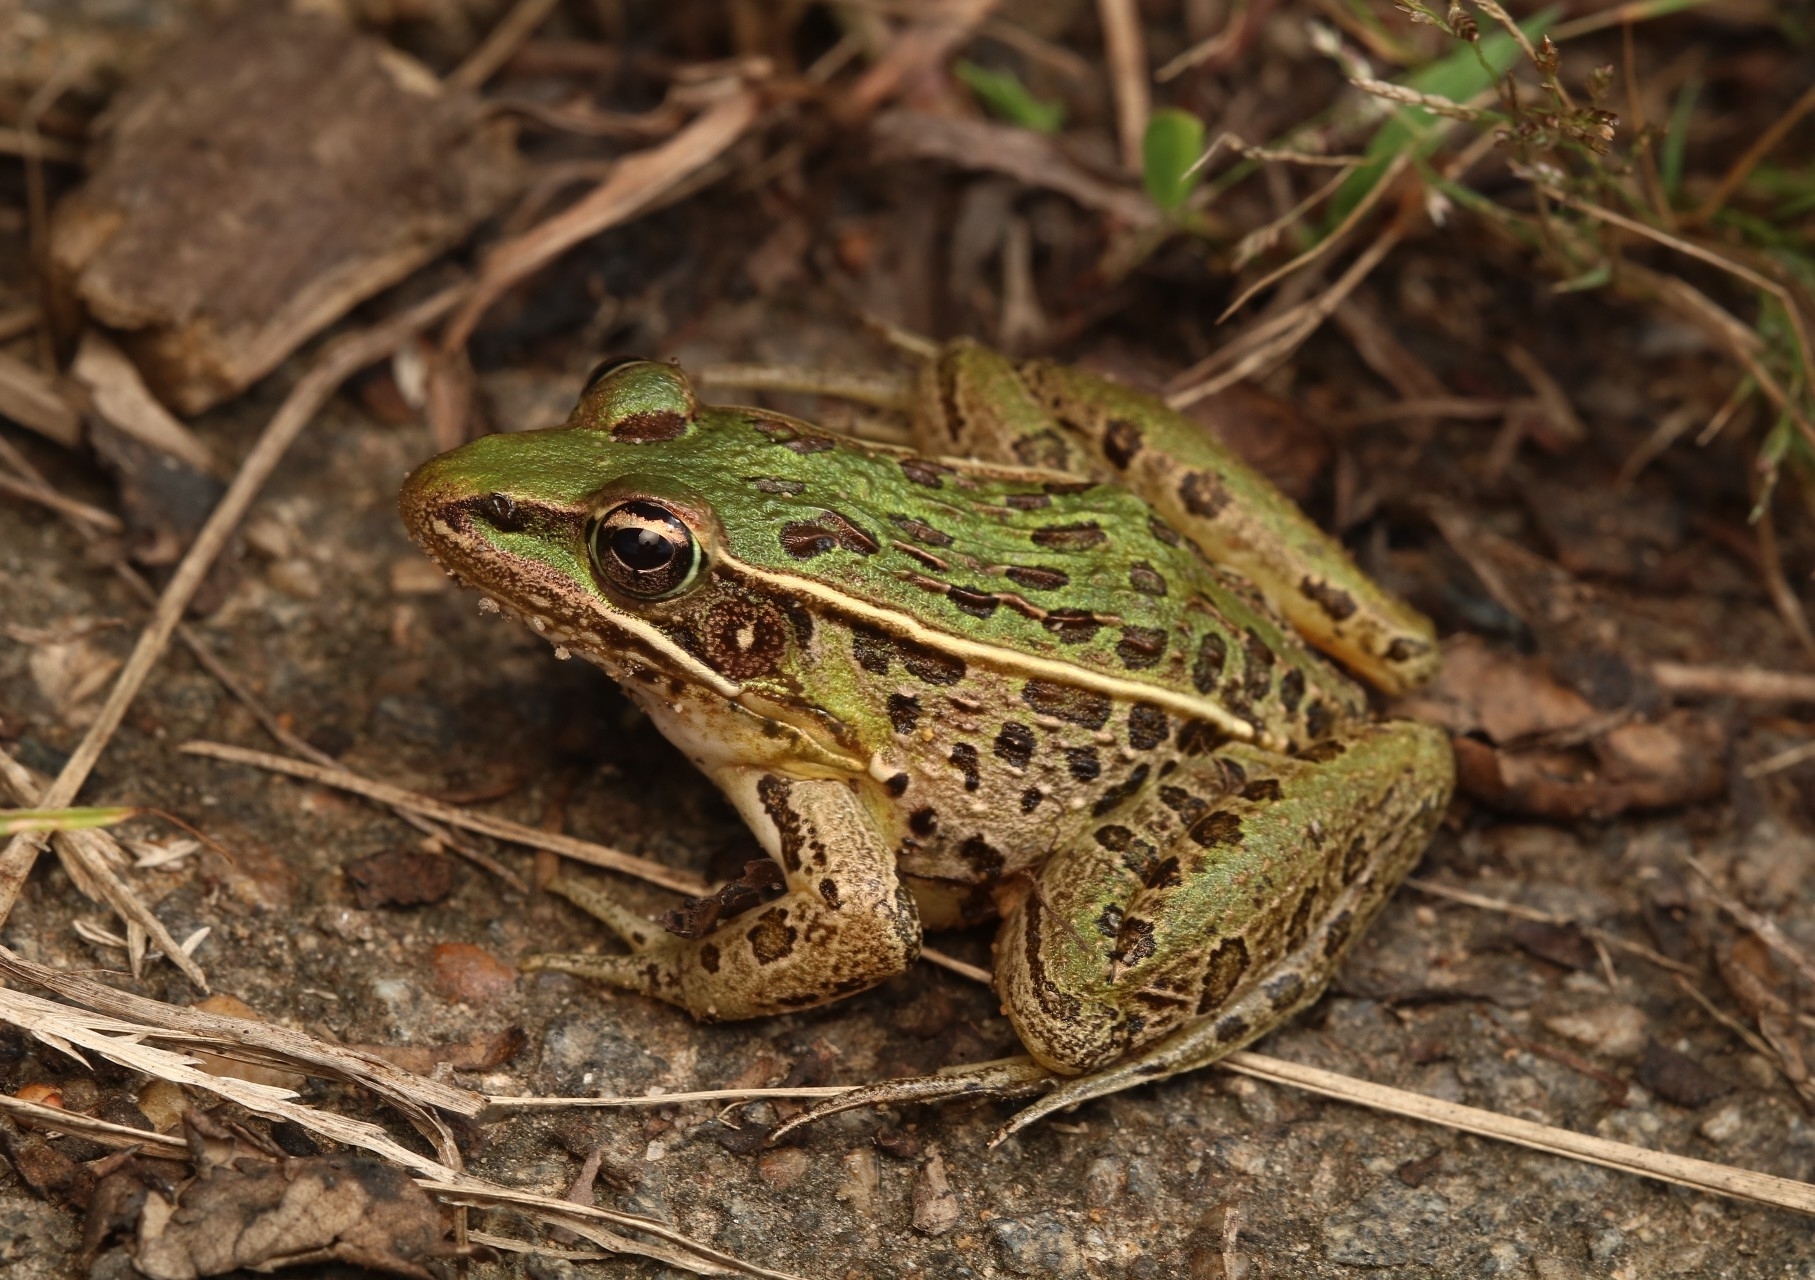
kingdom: Animalia
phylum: Chordata
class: Amphibia
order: Anura
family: Ranidae
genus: Lithobates
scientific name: Lithobates sphenocephalus
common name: Southern leopard frog
